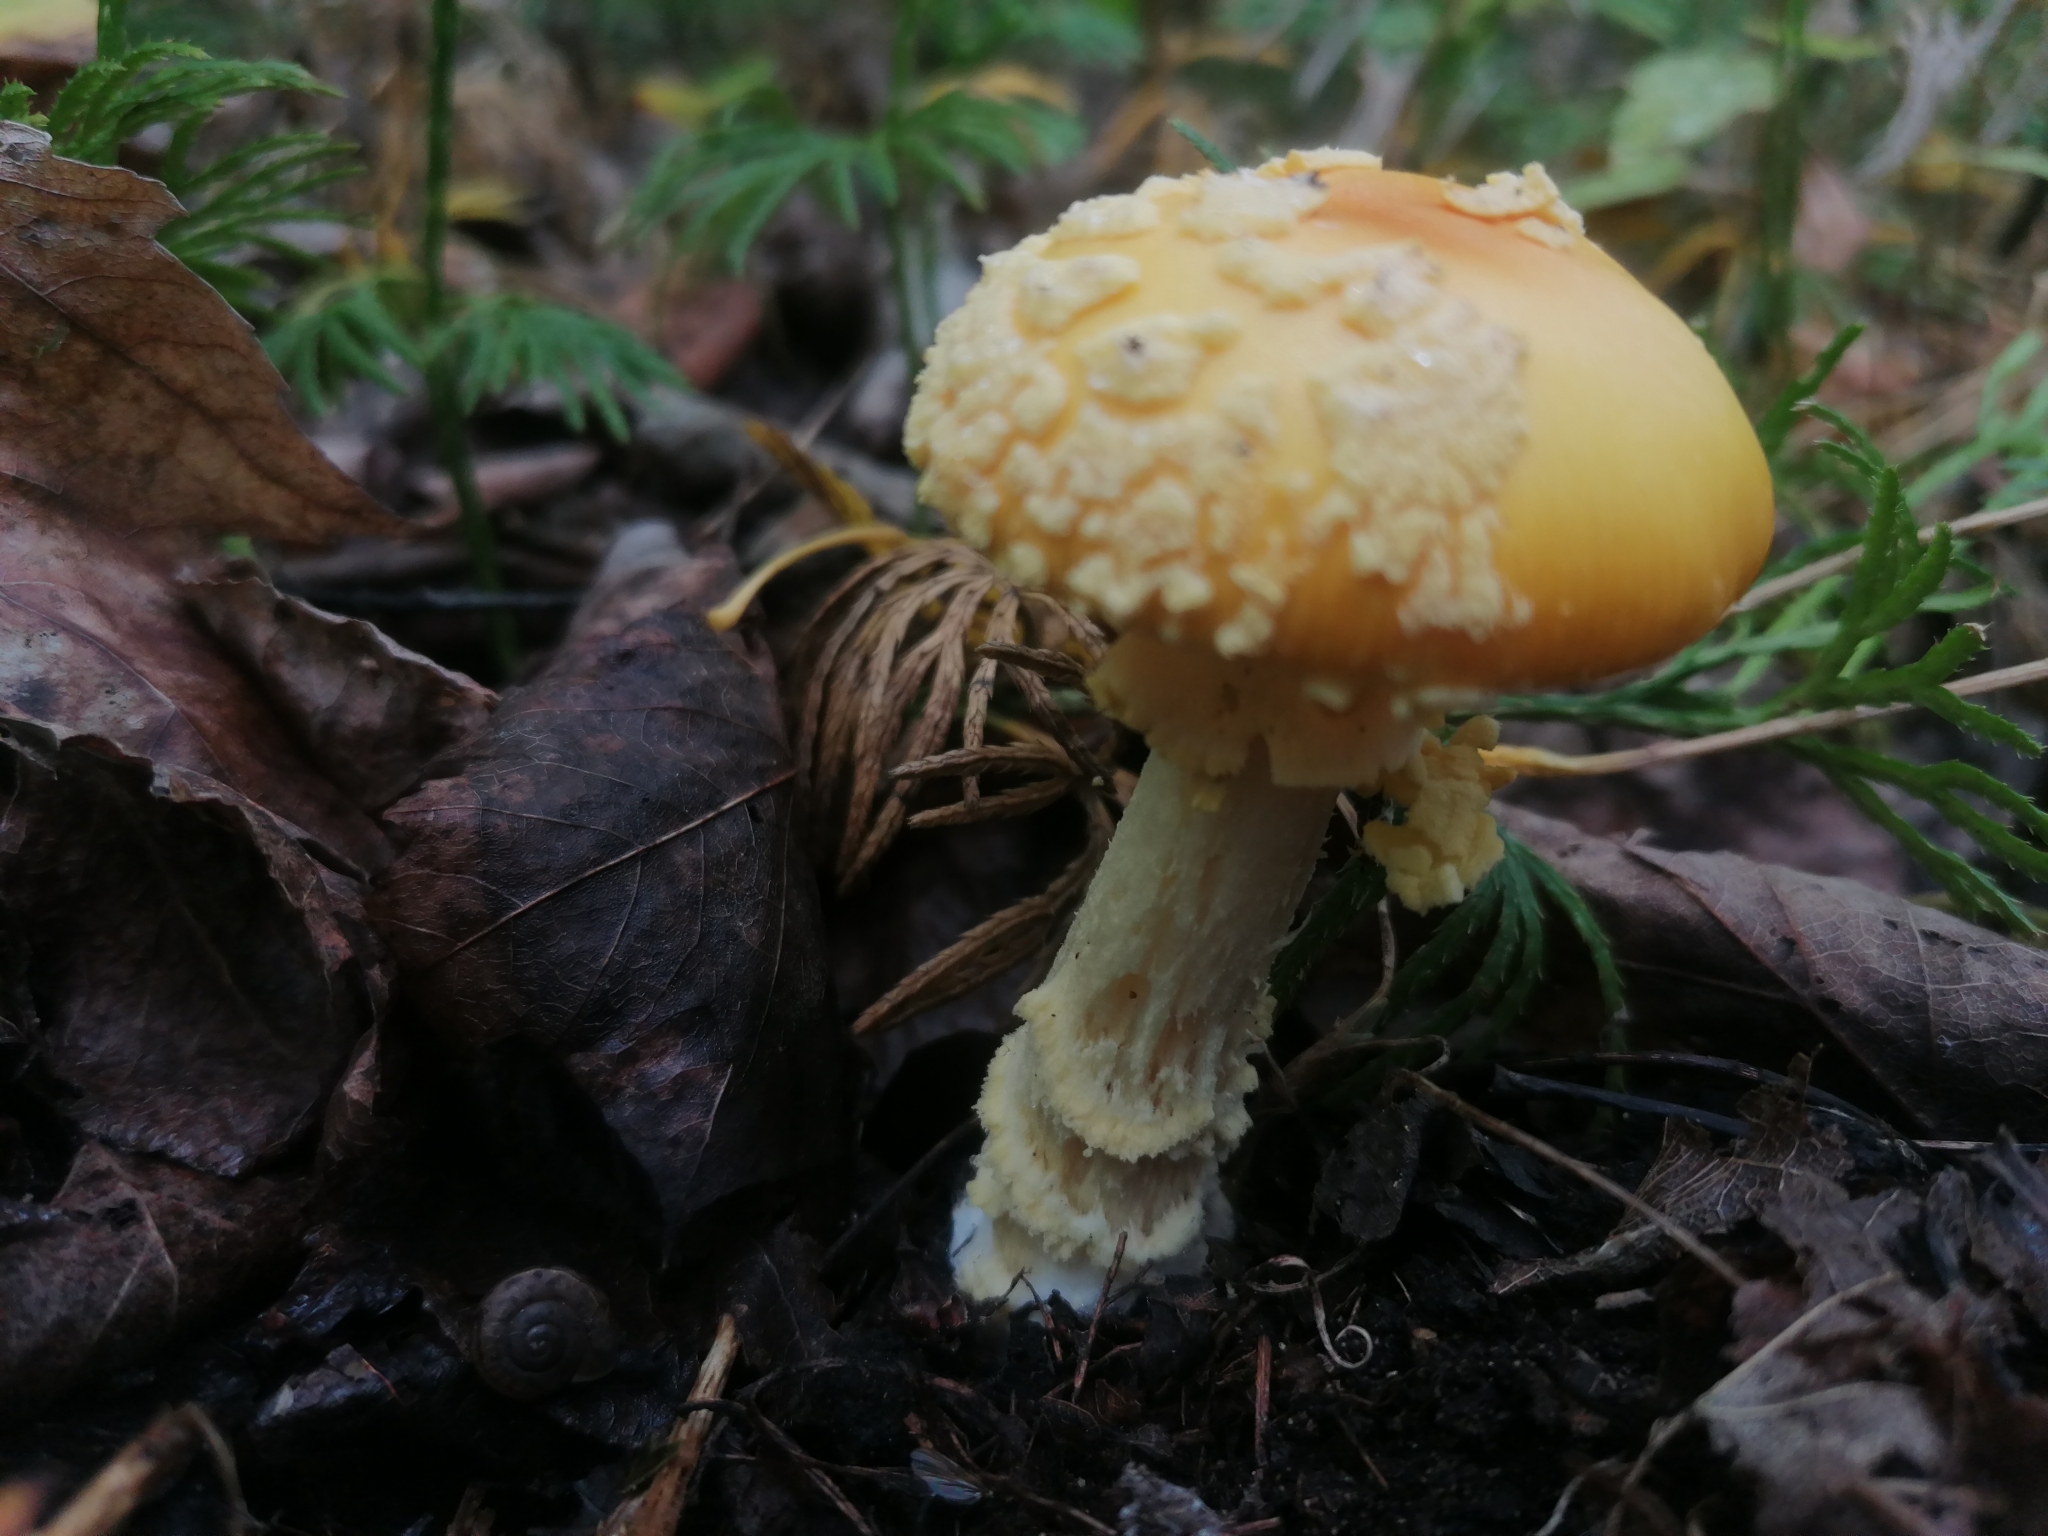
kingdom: Fungi
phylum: Basidiomycota
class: Agaricomycetes
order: Agaricales
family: Amanitaceae
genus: Amanita
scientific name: Amanita muscaria
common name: Fly agaric
